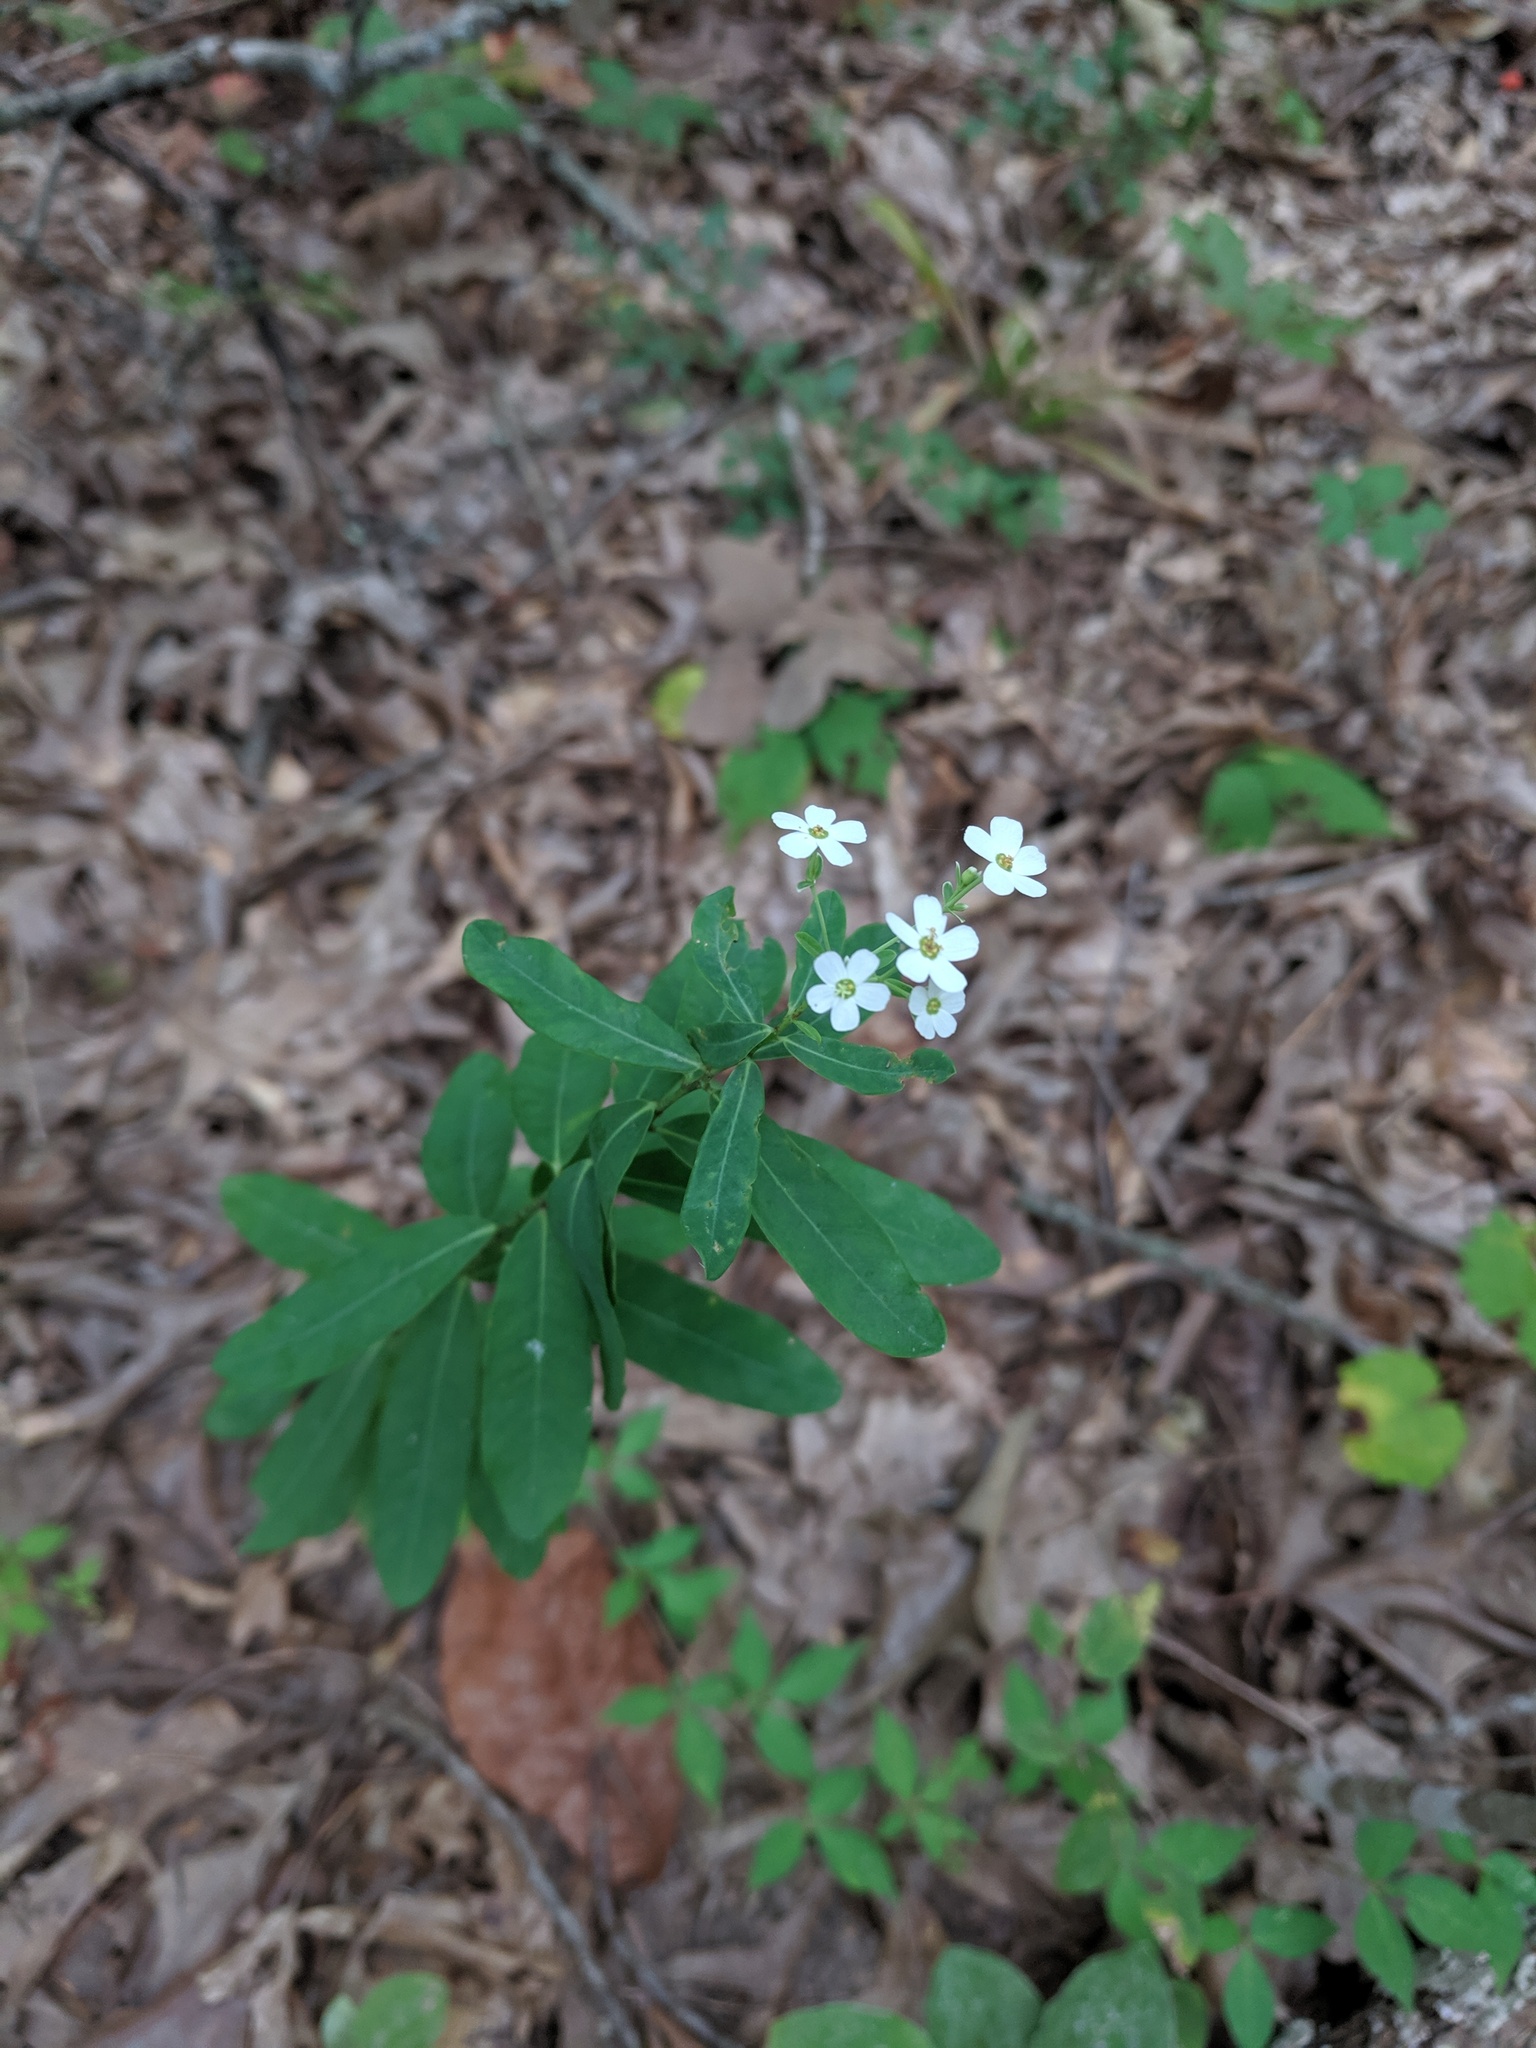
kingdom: Plantae
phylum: Tracheophyta
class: Magnoliopsida
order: Malpighiales
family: Euphorbiaceae
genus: Euphorbia
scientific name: Euphorbia corollata
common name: Flowering spurge
